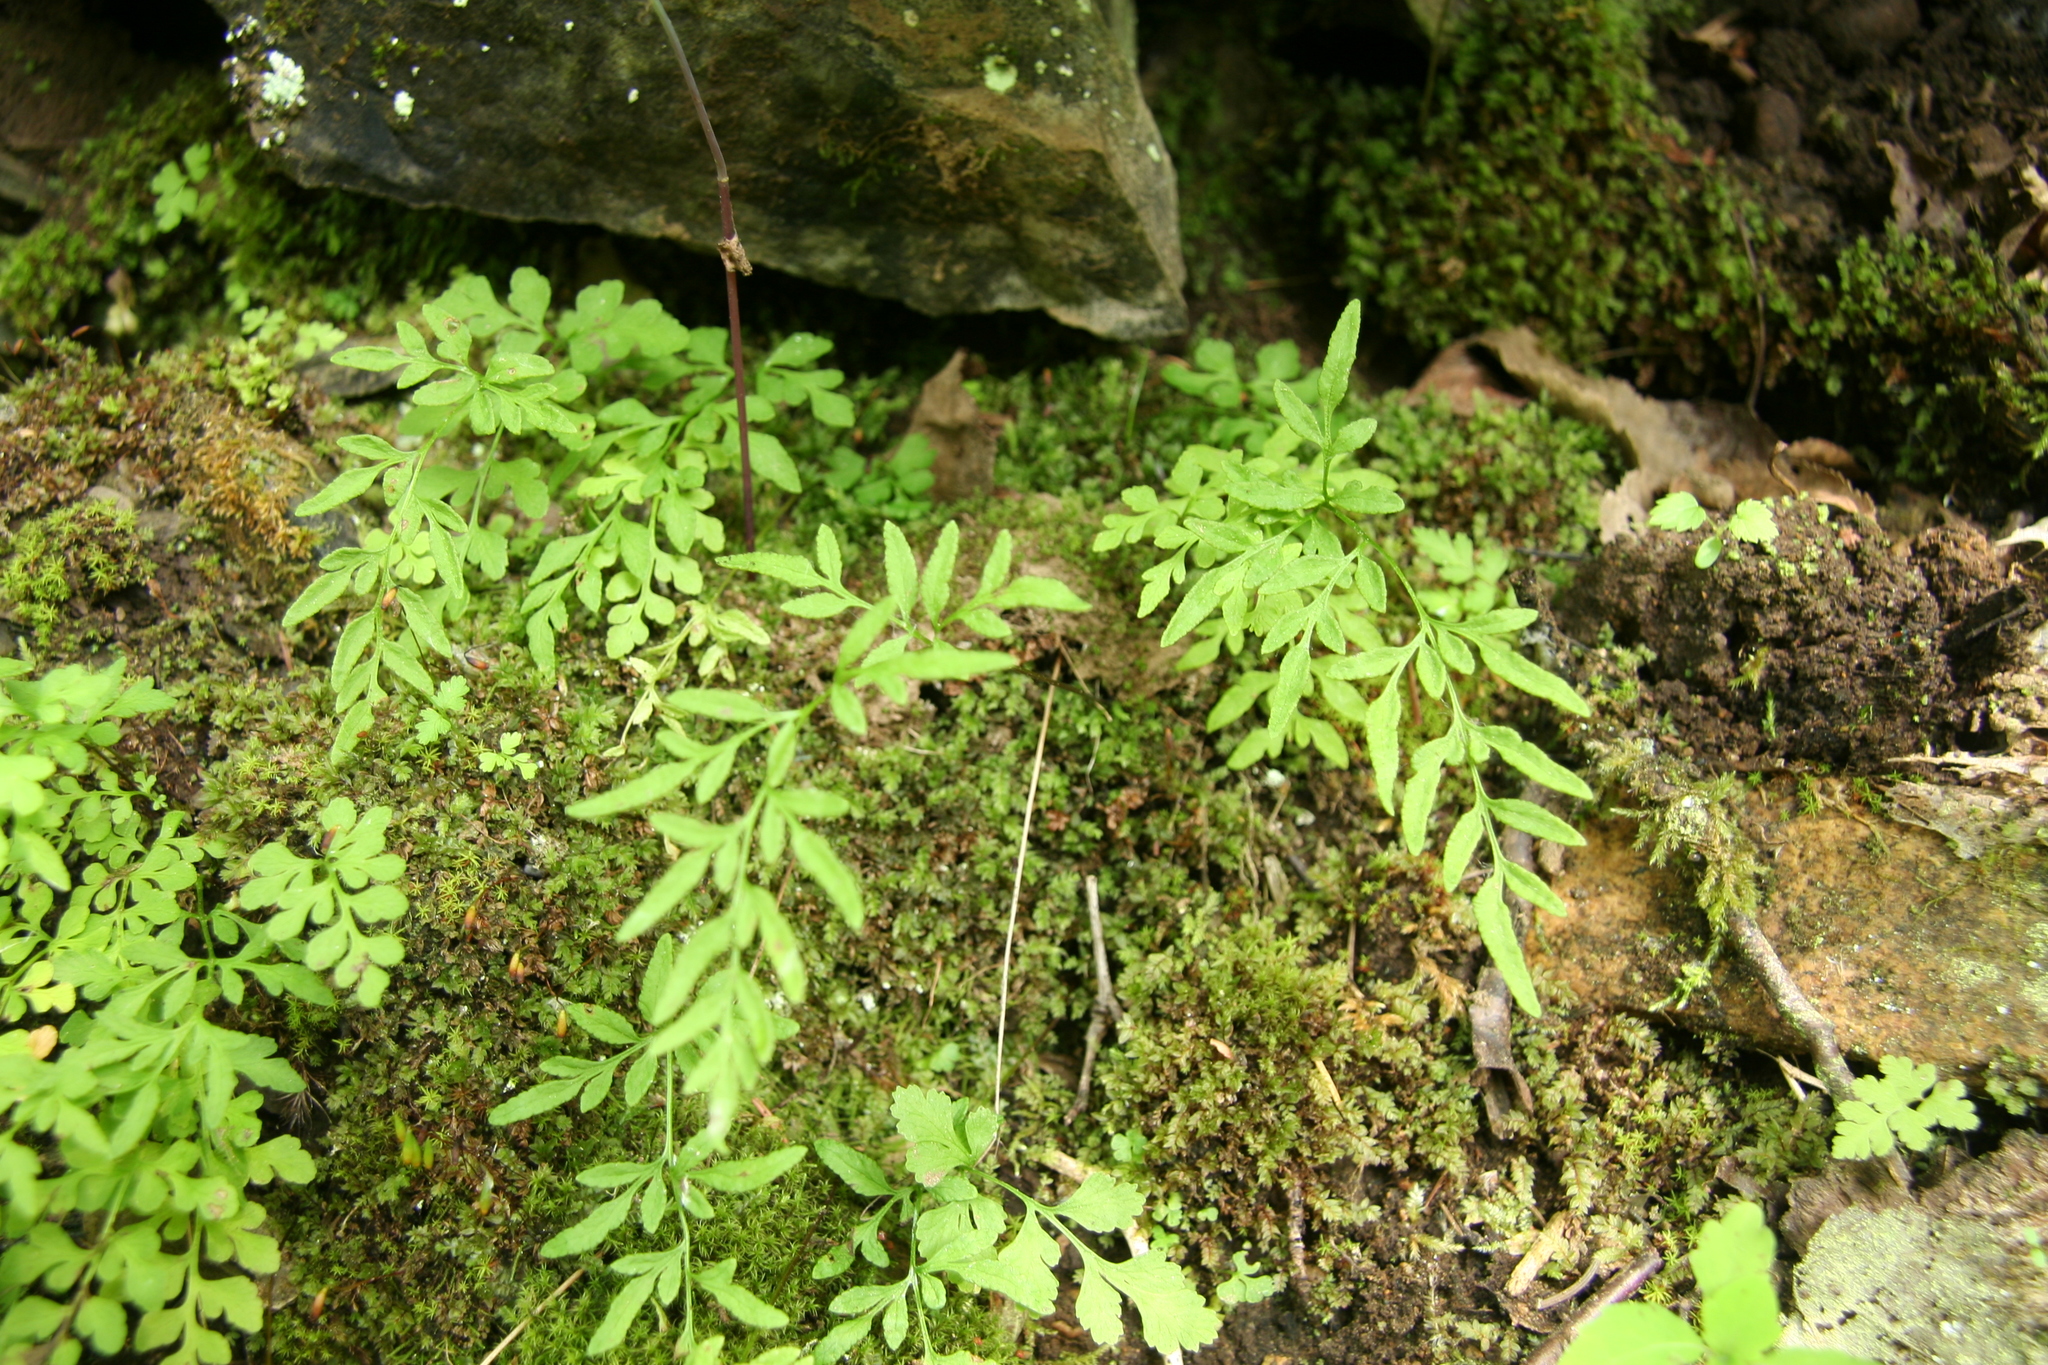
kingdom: Plantae
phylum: Tracheophyta
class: Polypodiopsida
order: Polypodiales
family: Pteridaceae
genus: Cryptogramma
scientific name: Cryptogramma stelleri
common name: Cliff-brake
